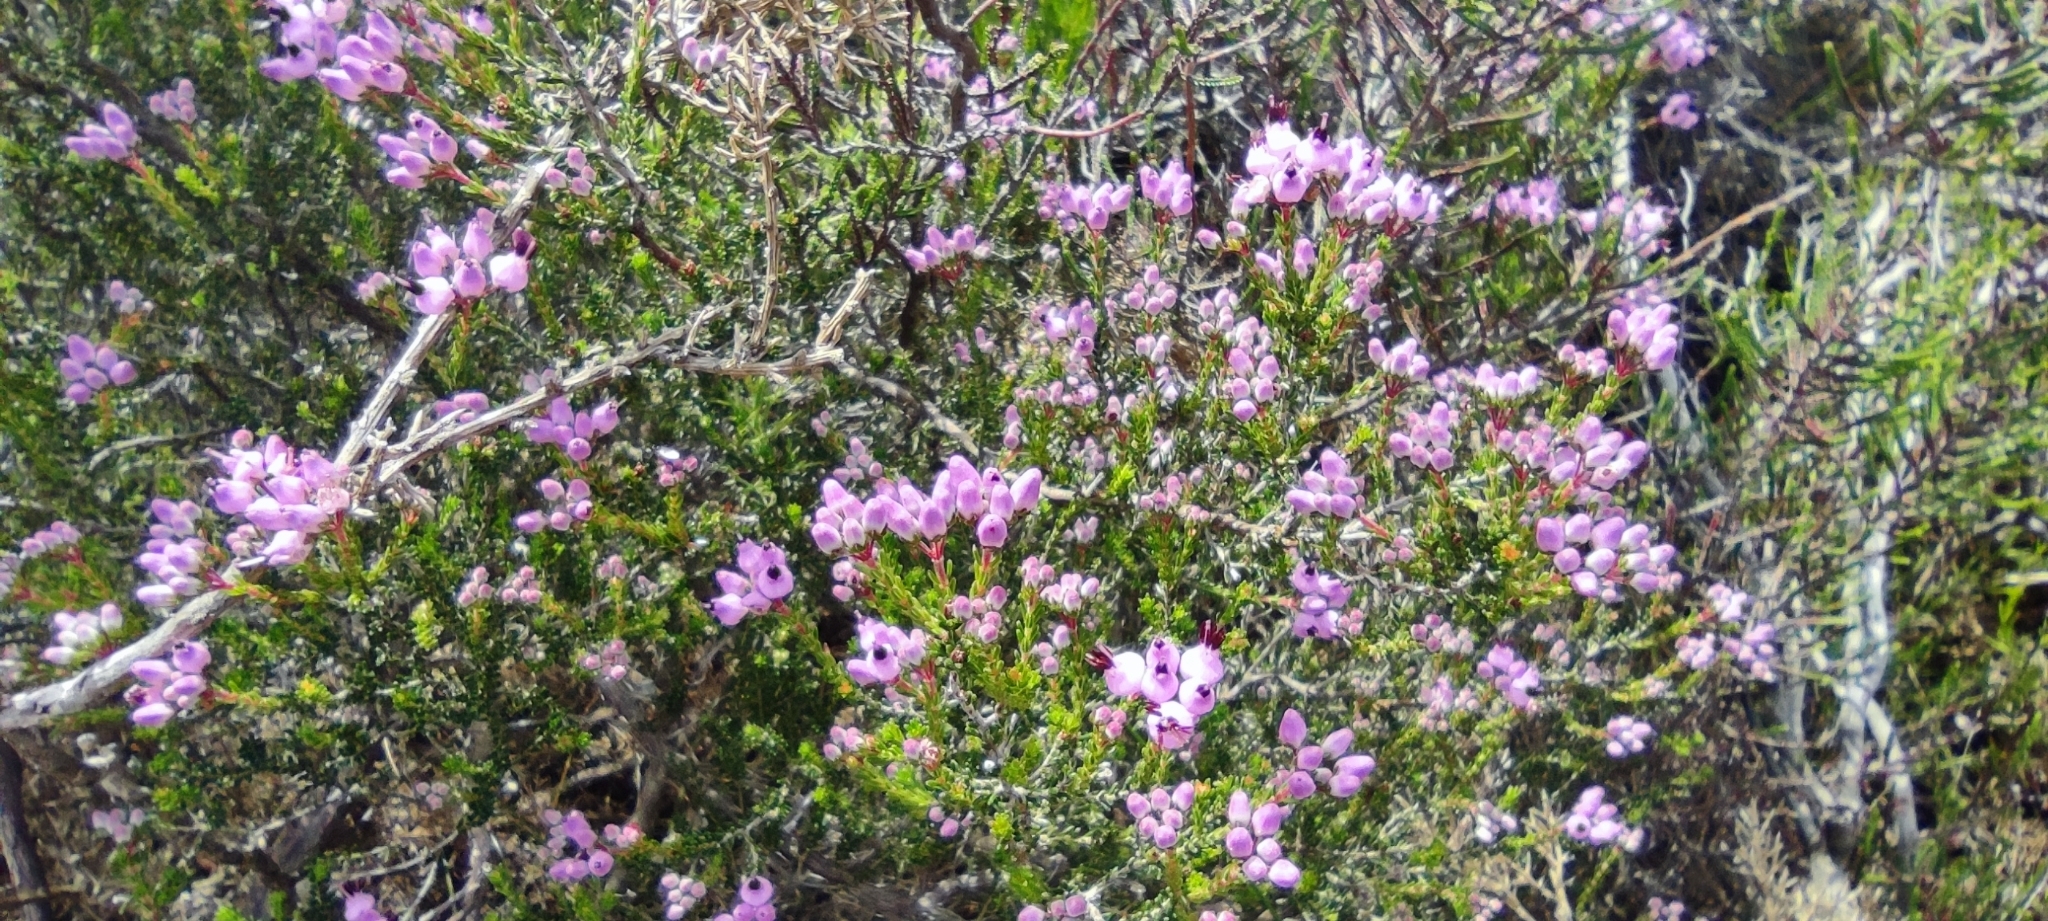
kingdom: Plantae
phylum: Tracheophyta
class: Magnoliopsida
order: Ericales
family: Ericaceae
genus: Erica
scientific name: Erica umbellata
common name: Dwarf spanish heath
